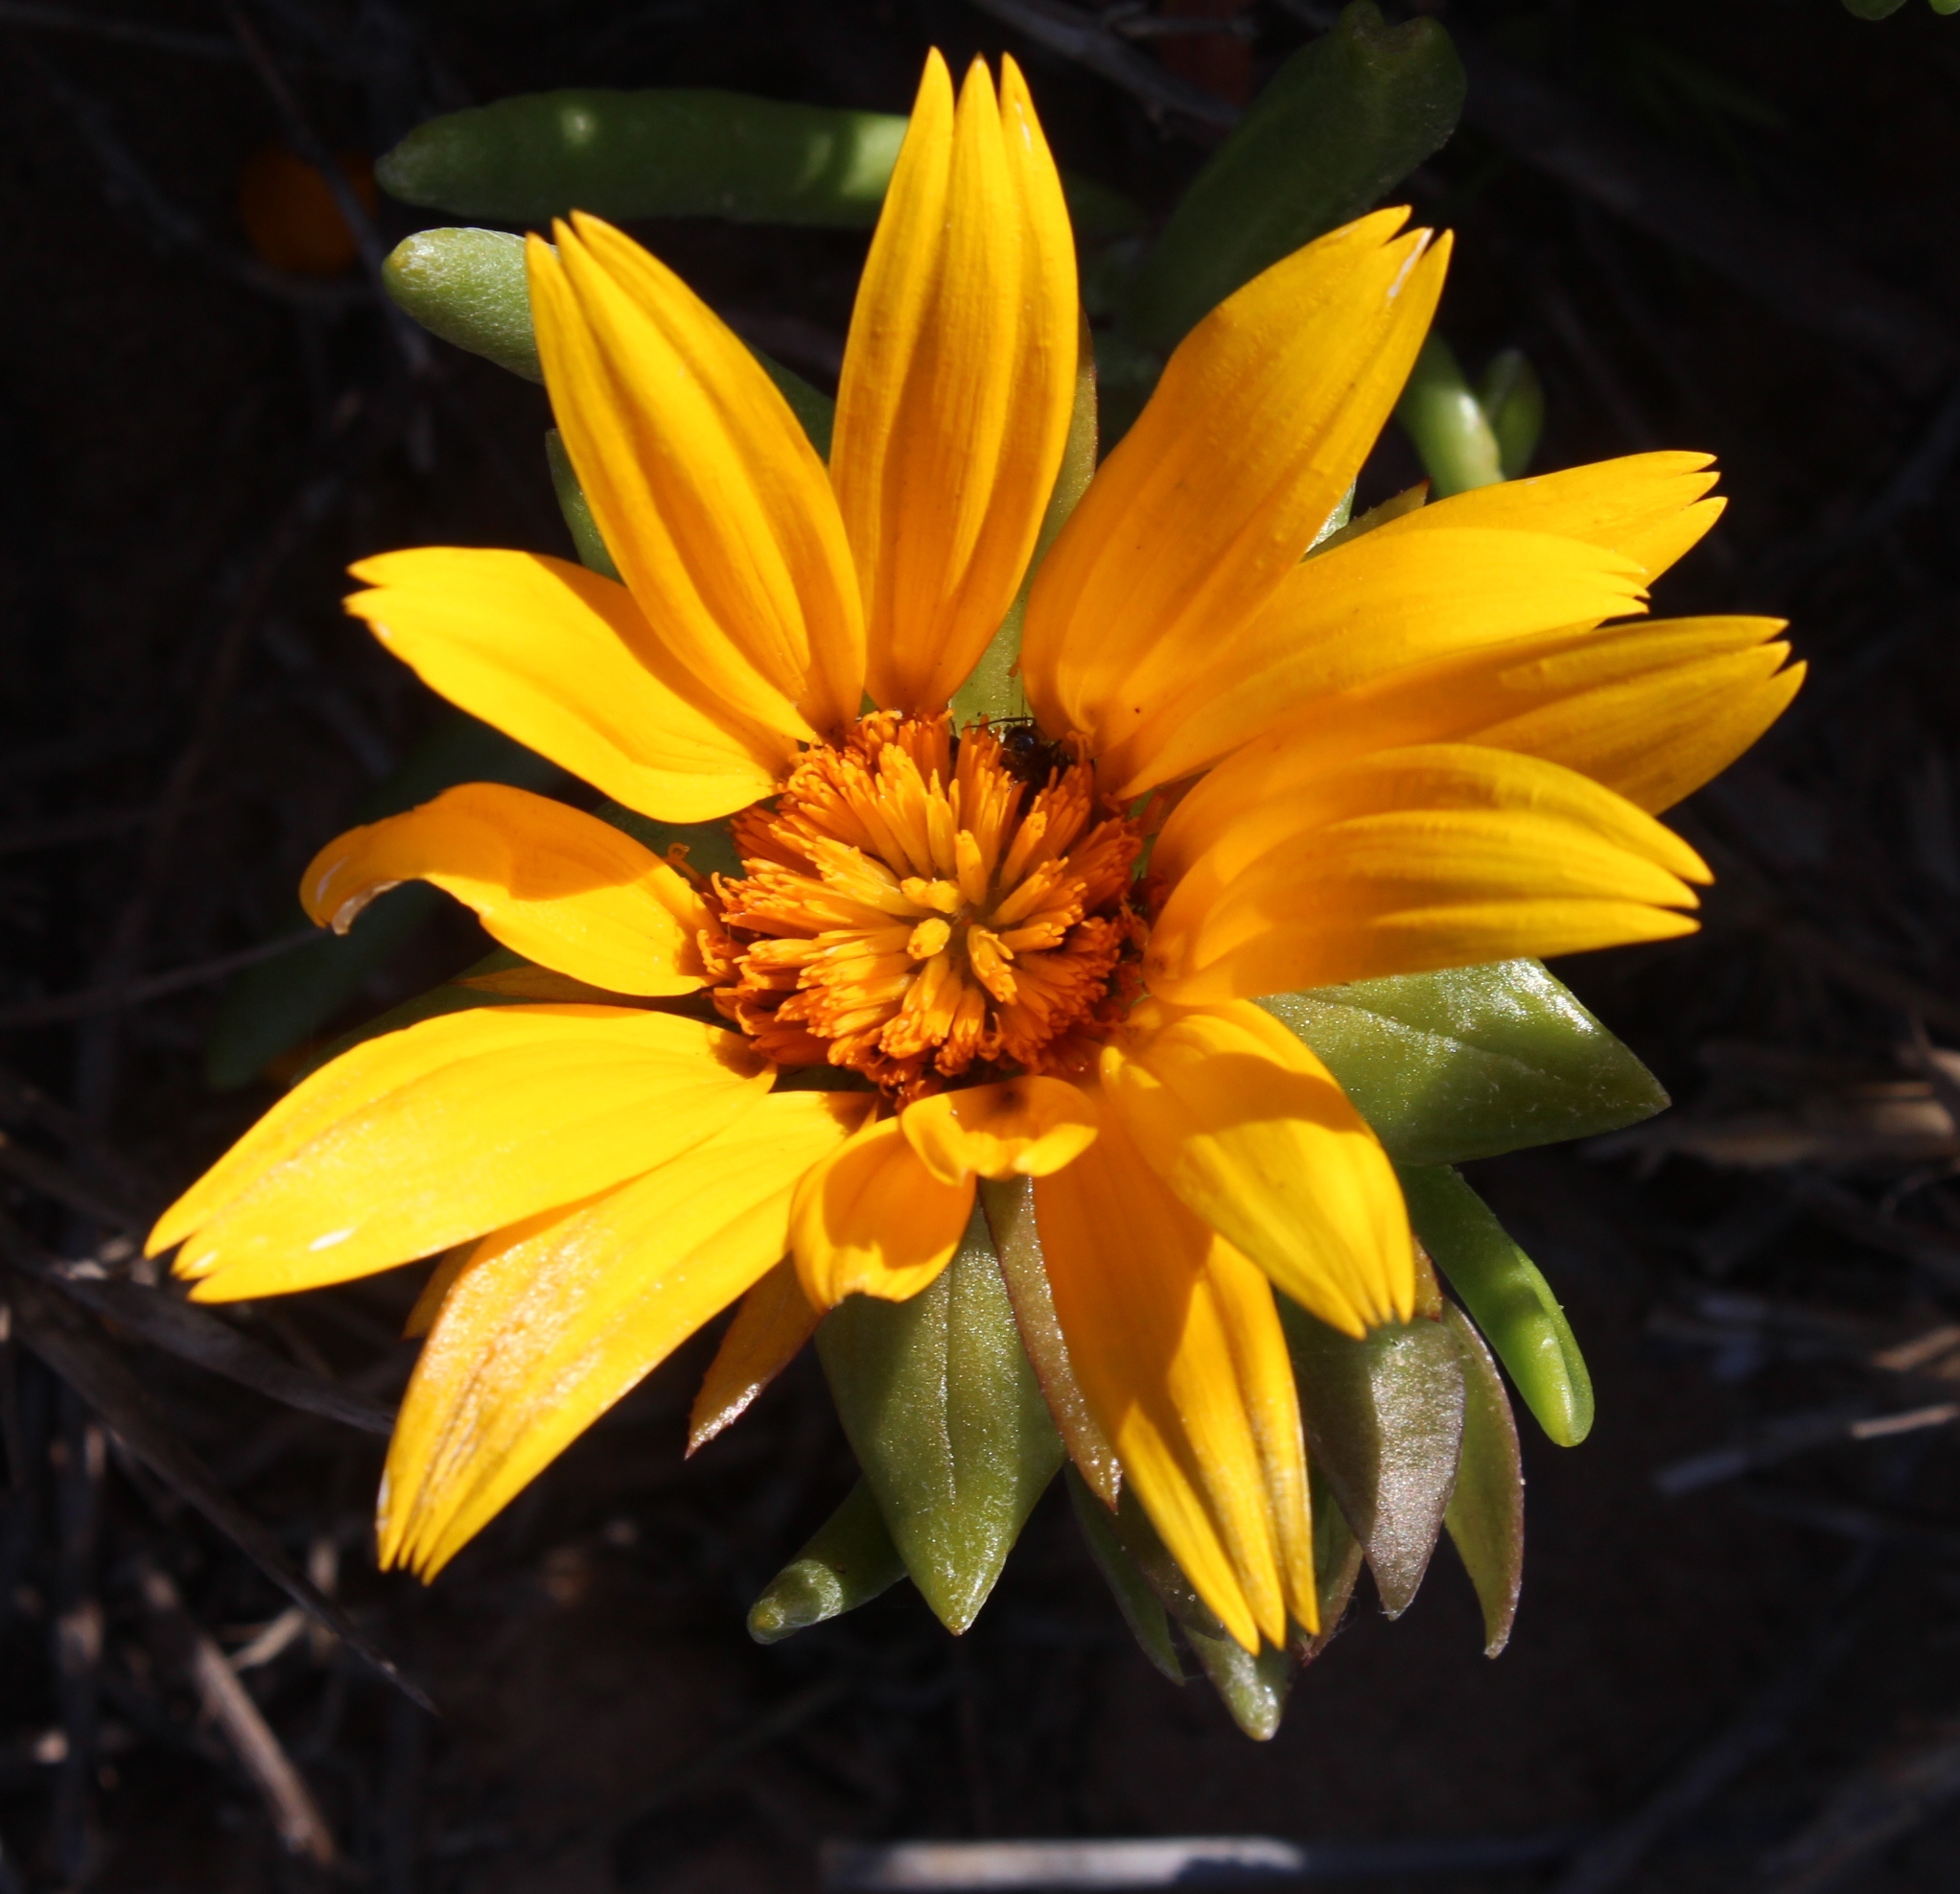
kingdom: Plantae
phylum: Tracheophyta
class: Magnoliopsida
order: Asterales
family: Asteraceae
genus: Didelta
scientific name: Didelta carnosa
